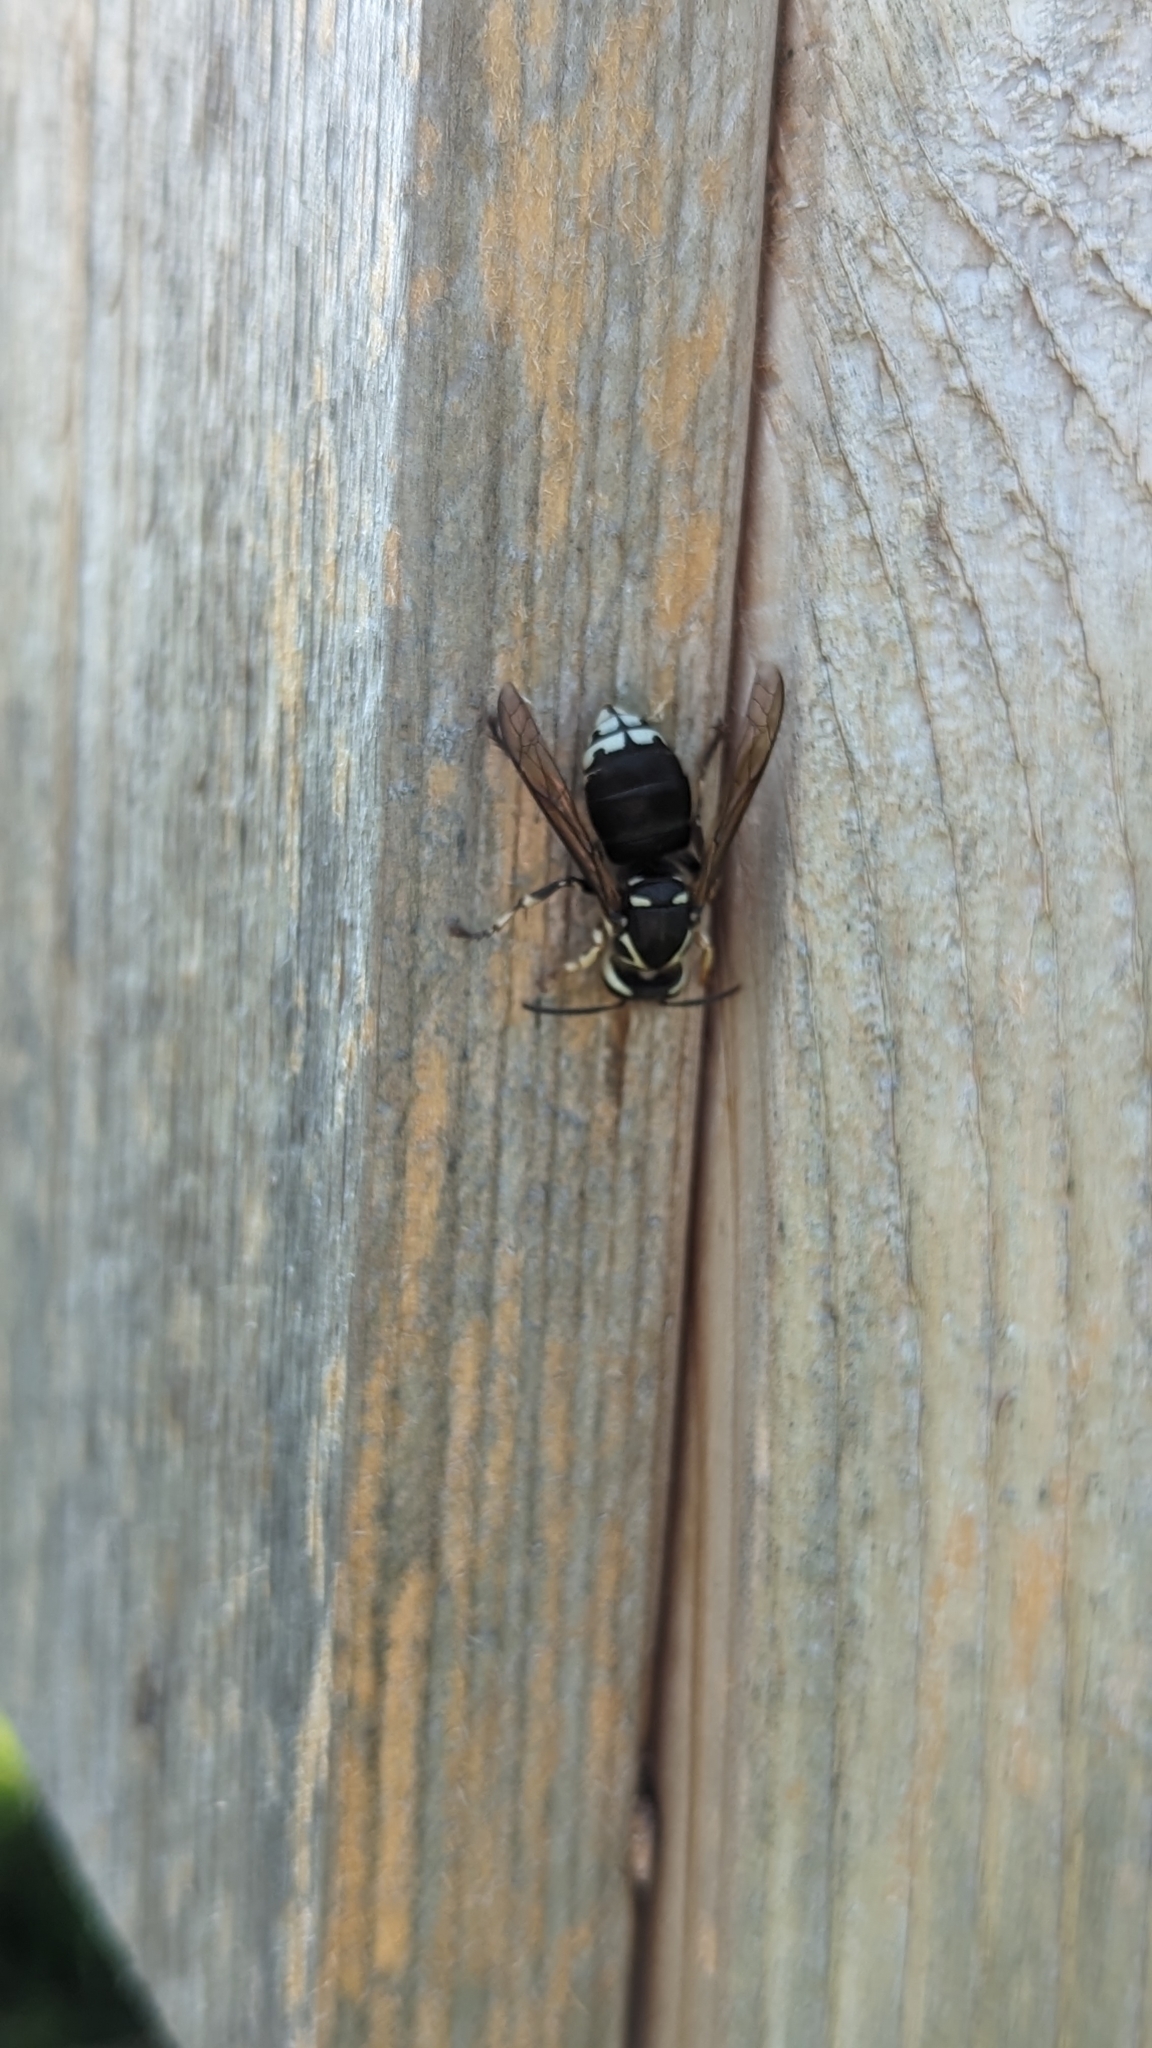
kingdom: Animalia
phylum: Arthropoda
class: Insecta
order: Hymenoptera
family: Vespidae
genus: Dolichovespula
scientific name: Dolichovespula maculata
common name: Bald-faced hornet
